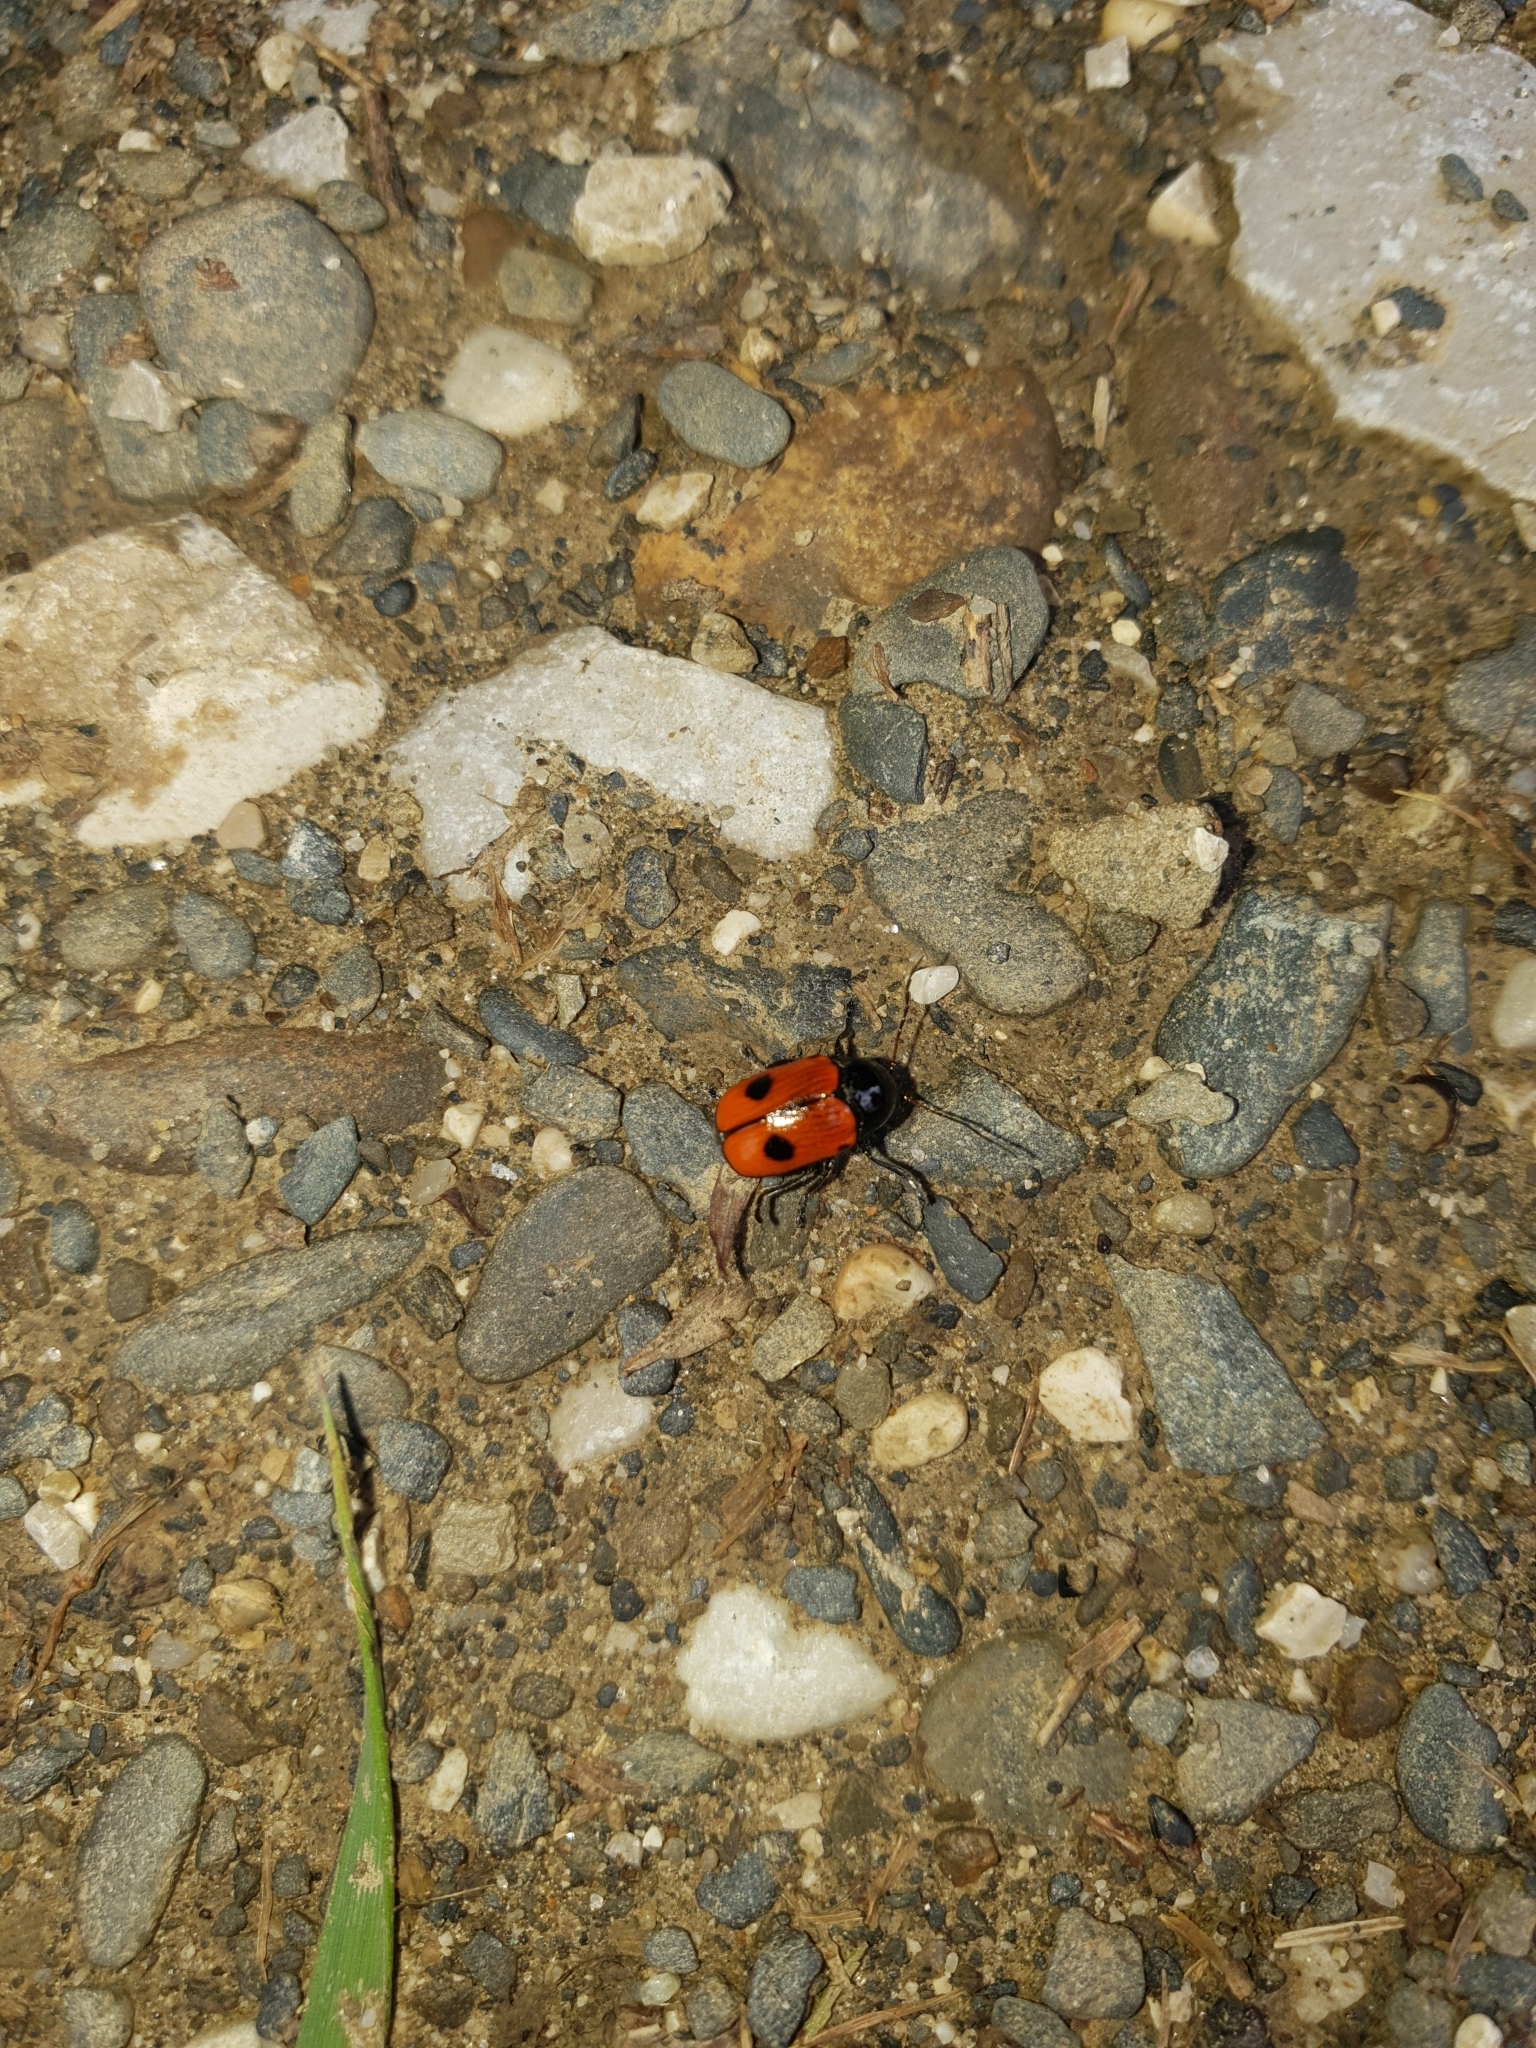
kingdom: Animalia
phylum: Arthropoda
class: Insecta
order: Coleoptera
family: Chrysomelidae
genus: Chiridopsis
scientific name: Chiridopsis bipunctata
